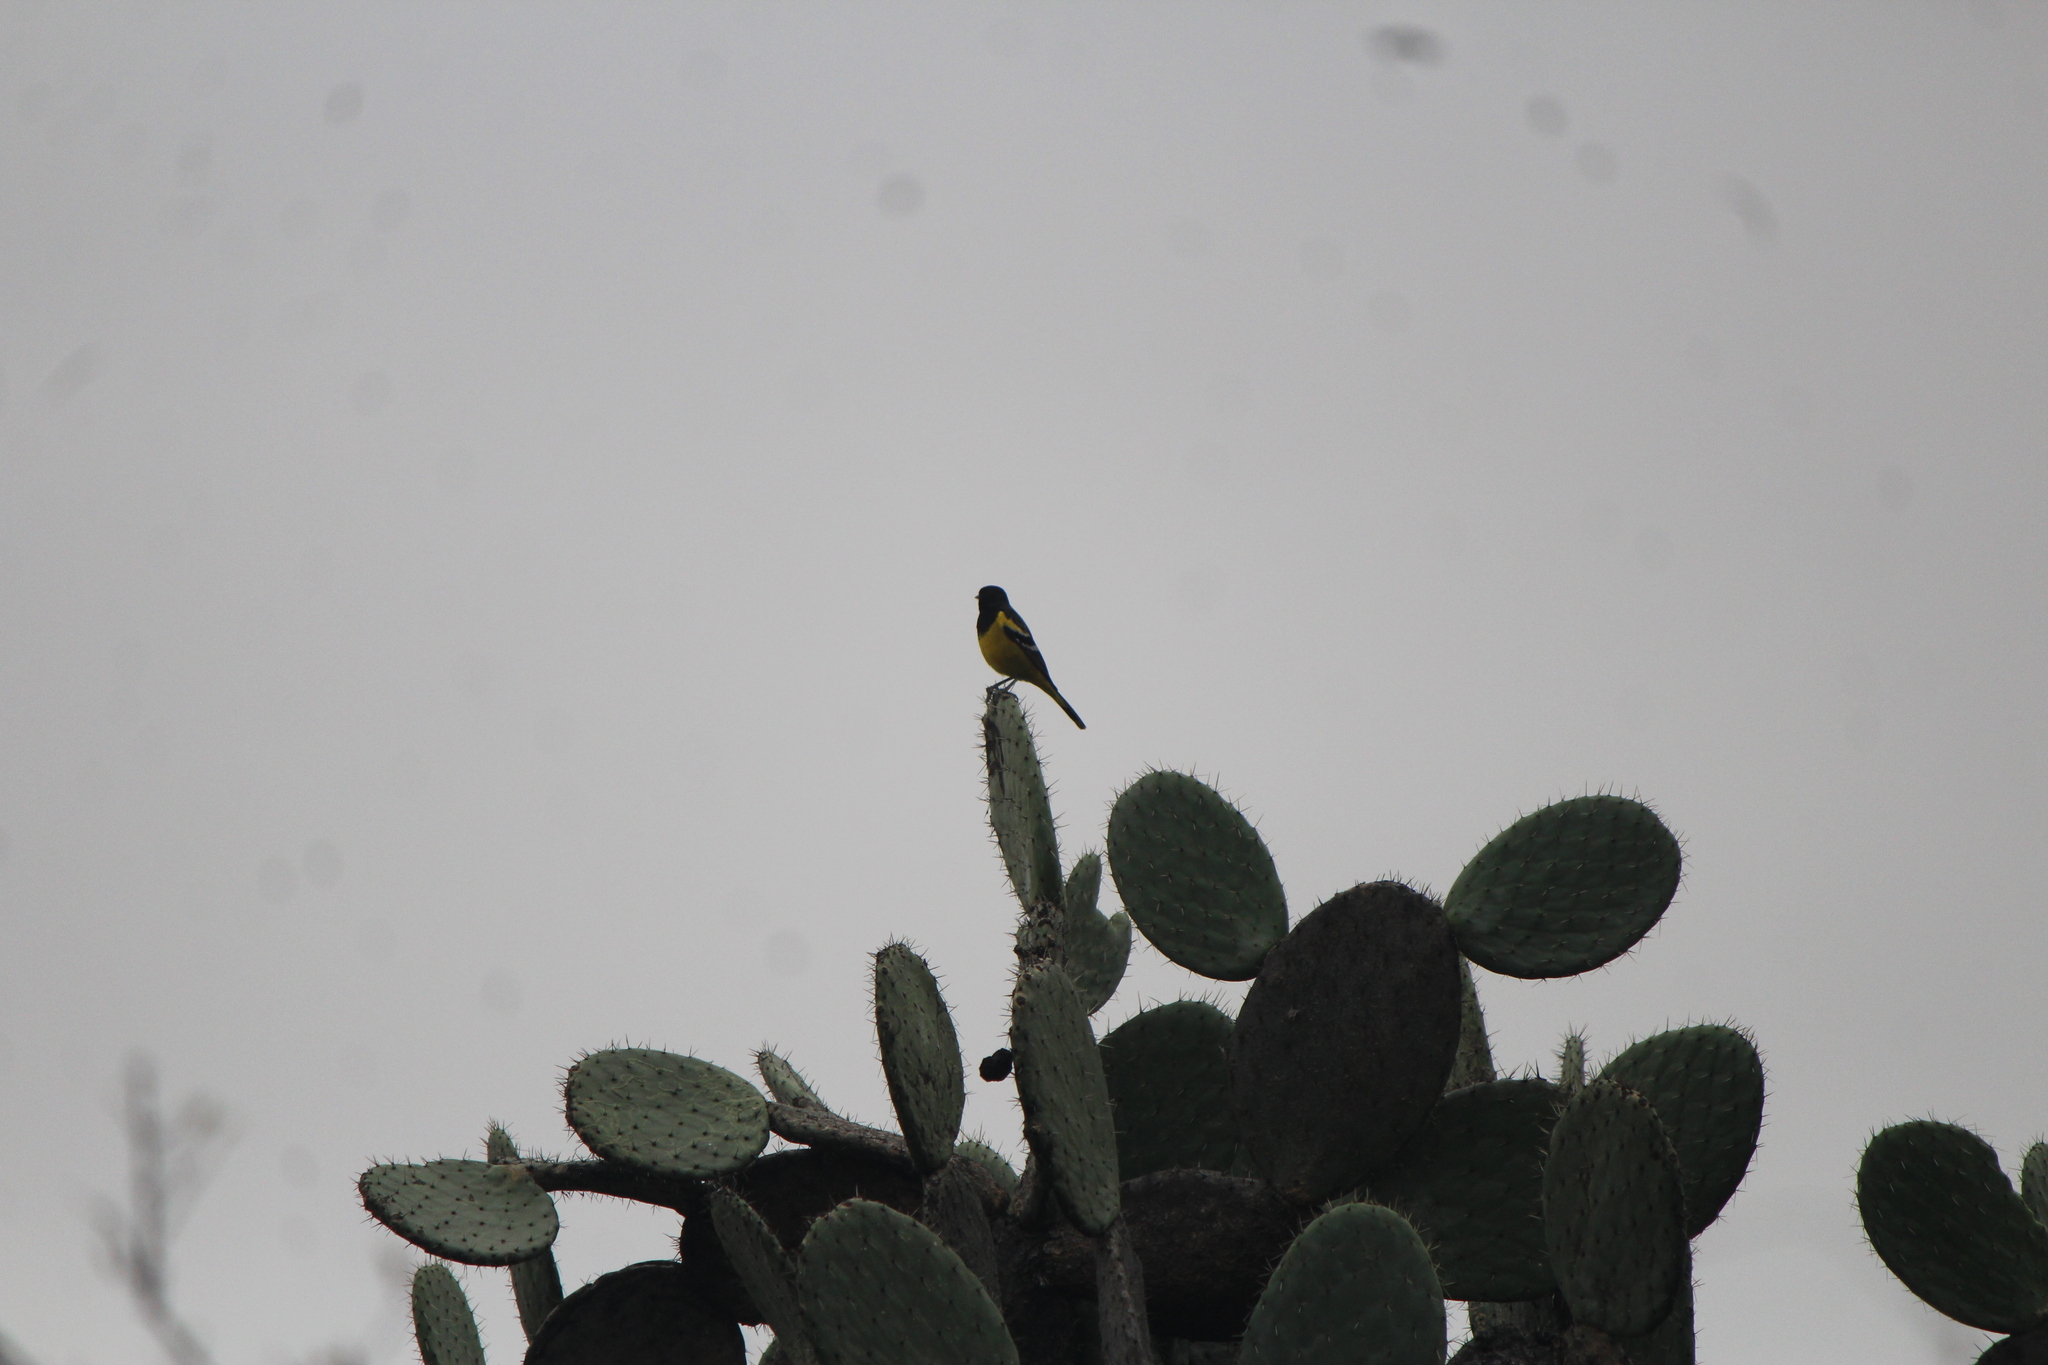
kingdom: Animalia
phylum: Chordata
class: Aves
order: Passeriformes
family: Icteridae
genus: Icterus
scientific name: Icterus parisorum
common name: Scott's oriole
